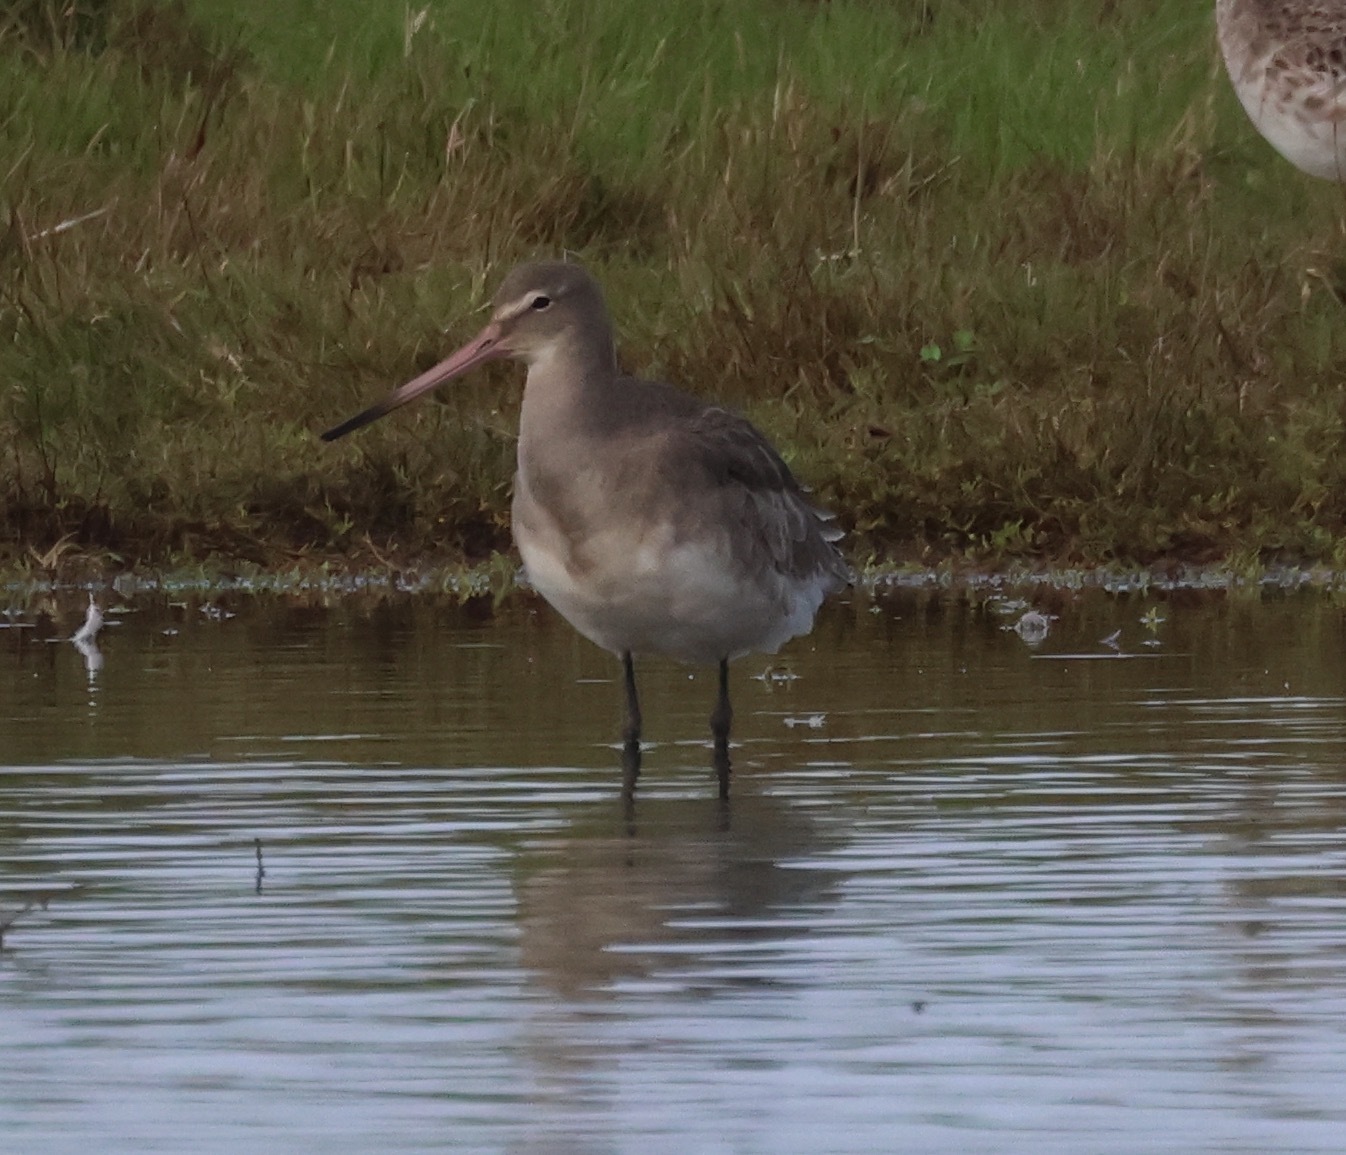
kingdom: Animalia
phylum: Chordata
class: Aves
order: Charadriiformes
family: Scolopacidae
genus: Limosa
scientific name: Limosa limosa
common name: Black-tailed godwit
